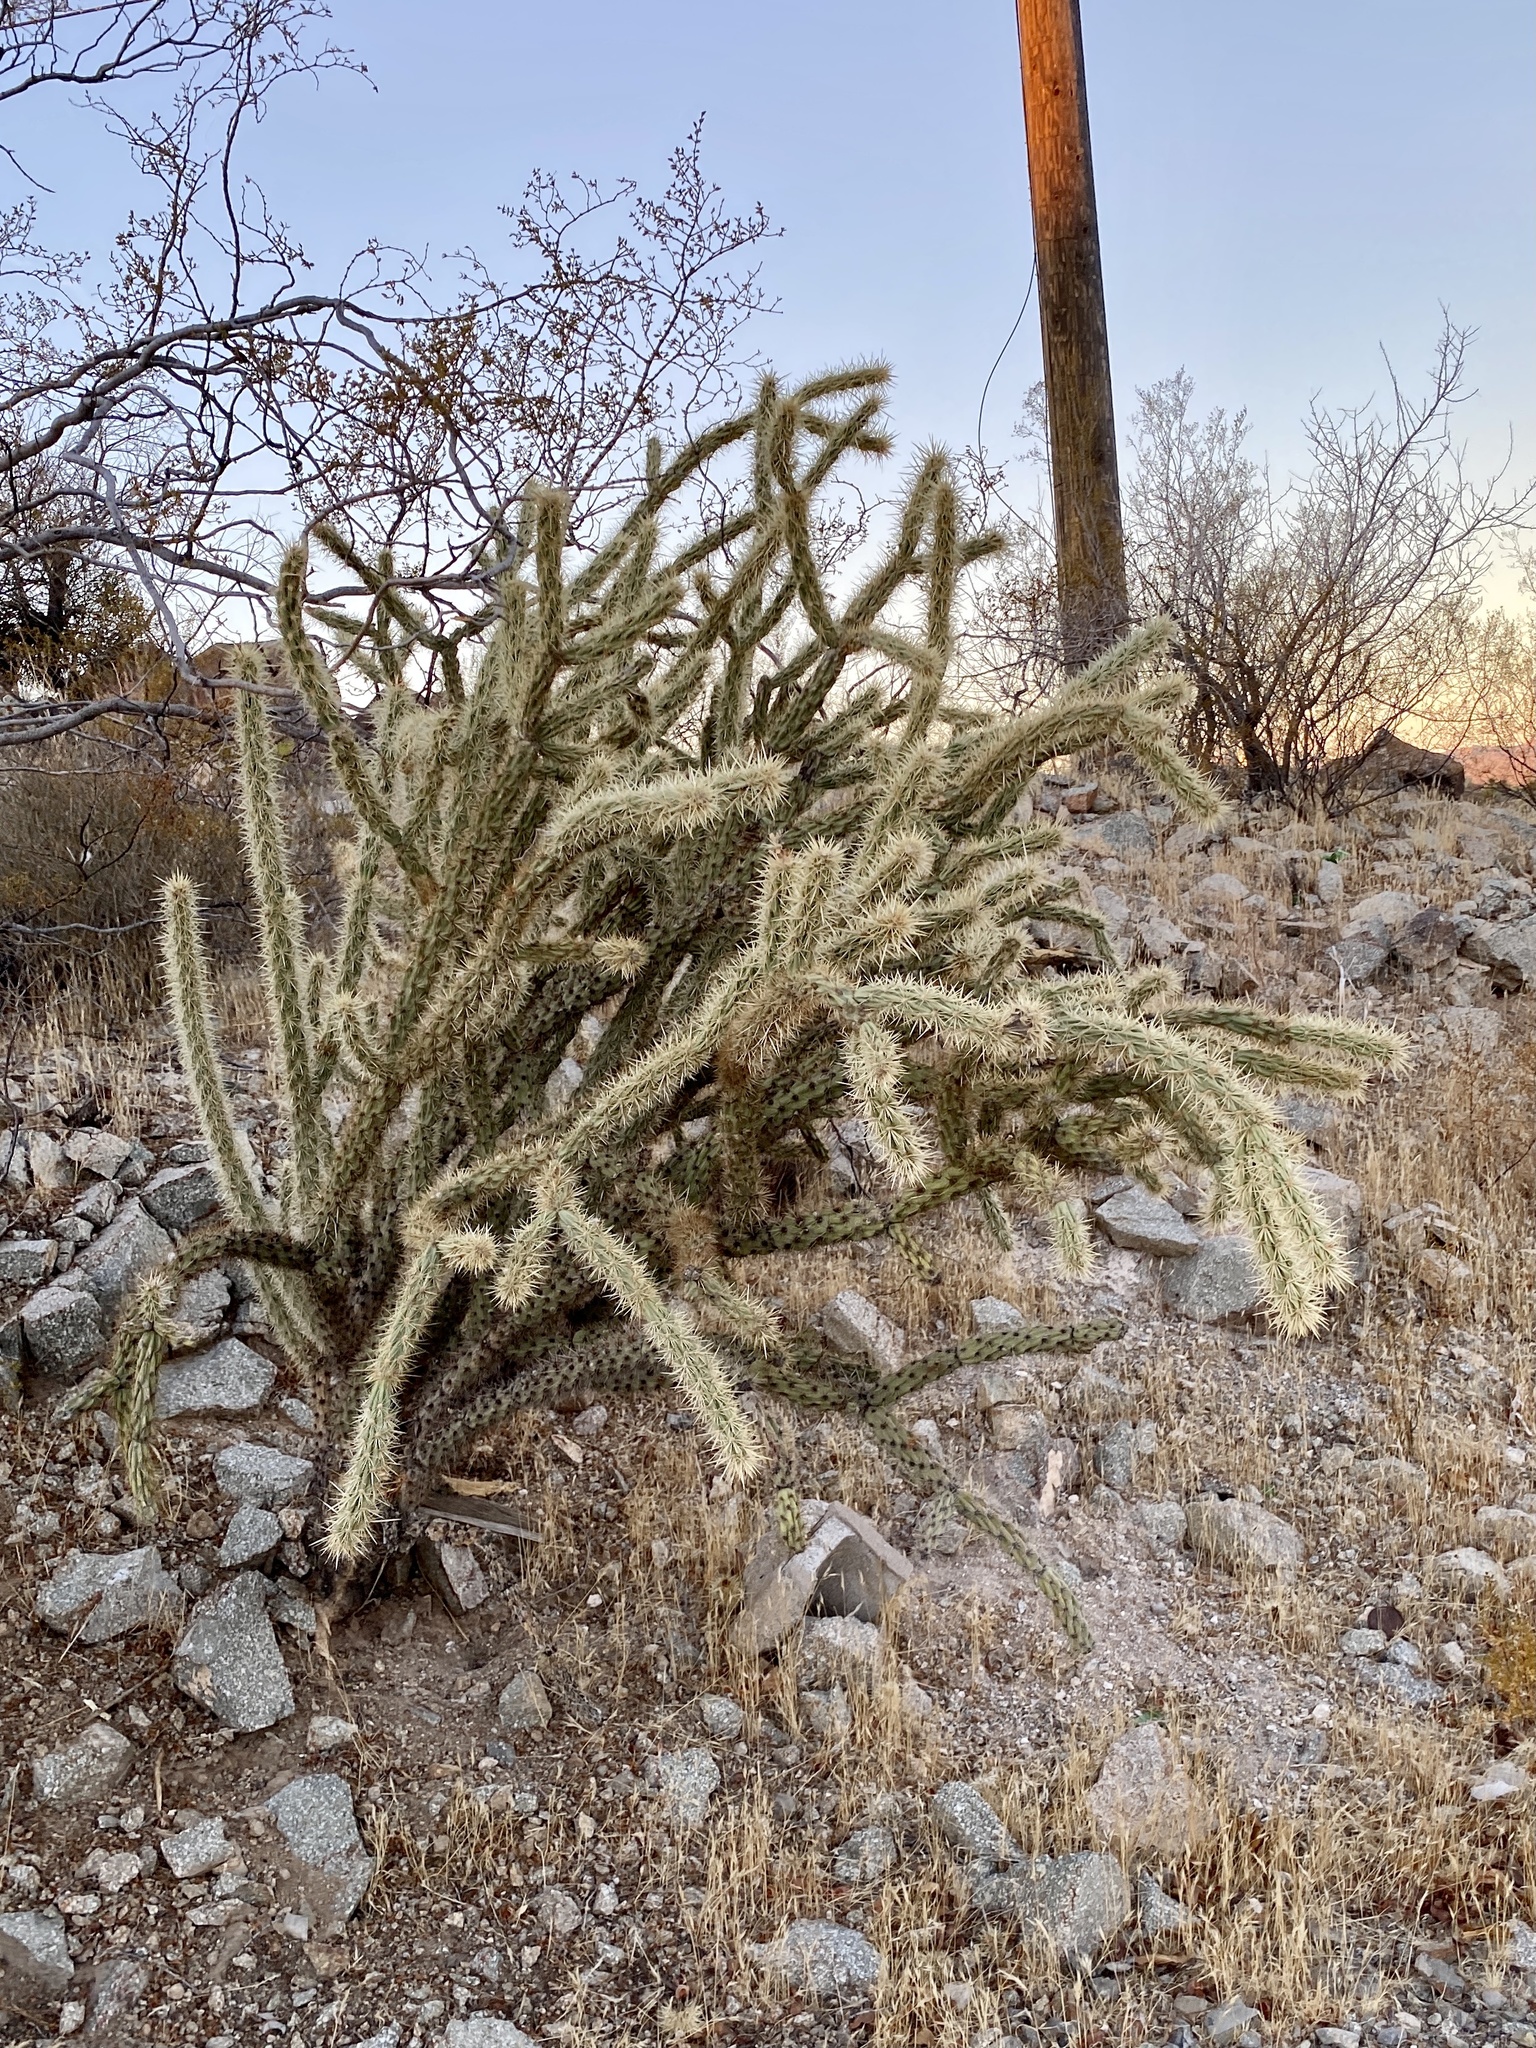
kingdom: Plantae
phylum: Tracheophyta
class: Magnoliopsida
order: Caryophyllales
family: Cactaceae
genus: Cylindropuntia
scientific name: Cylindropuntia acanthocarpa
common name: Buckhorn cholla
